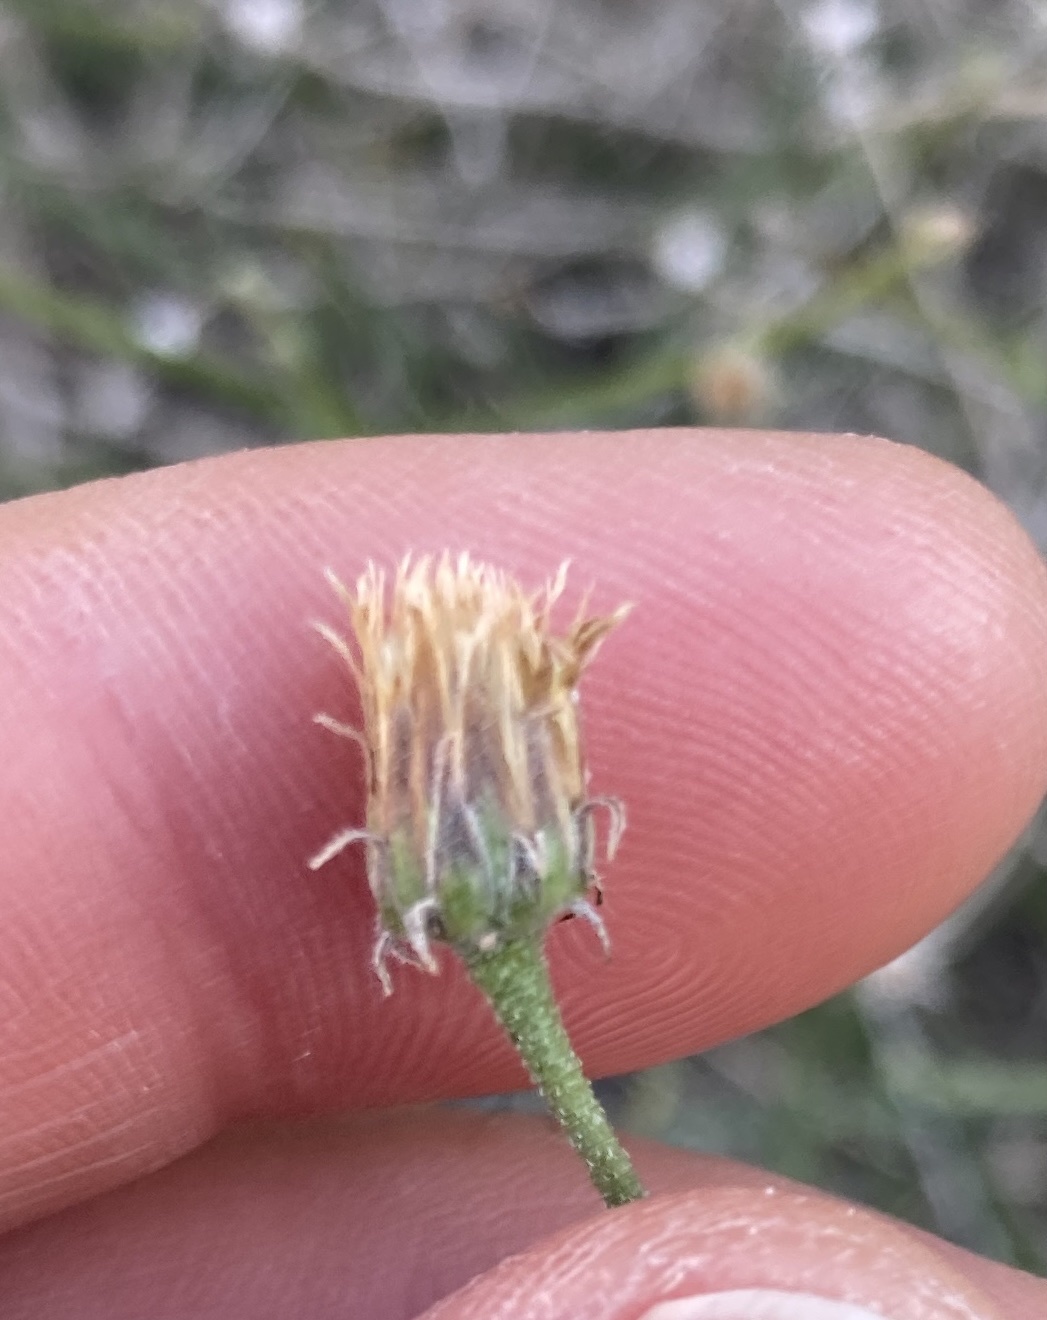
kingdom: Plantae
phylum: Tracheophyta
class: Magnoliopsida
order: Asterales
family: Asteraceae
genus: Bebbia
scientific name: Bebbia juncea
